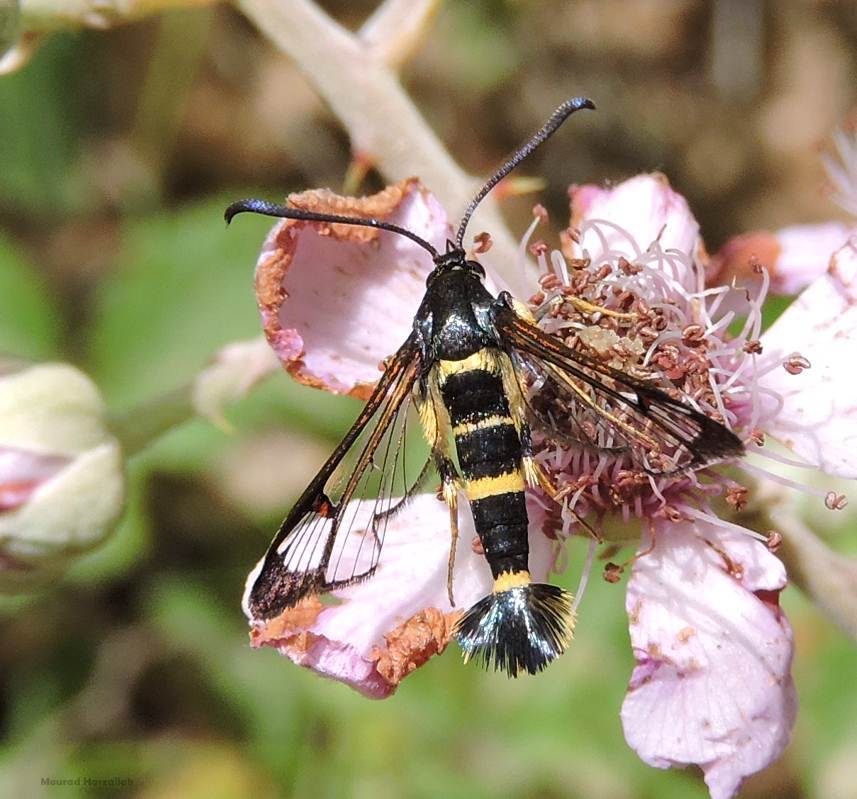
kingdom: Animalia
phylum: Arthropoda
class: Insecta
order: Lepidoptera
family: Sesiidae
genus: Synanthedon
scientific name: Synanthedon codeti
